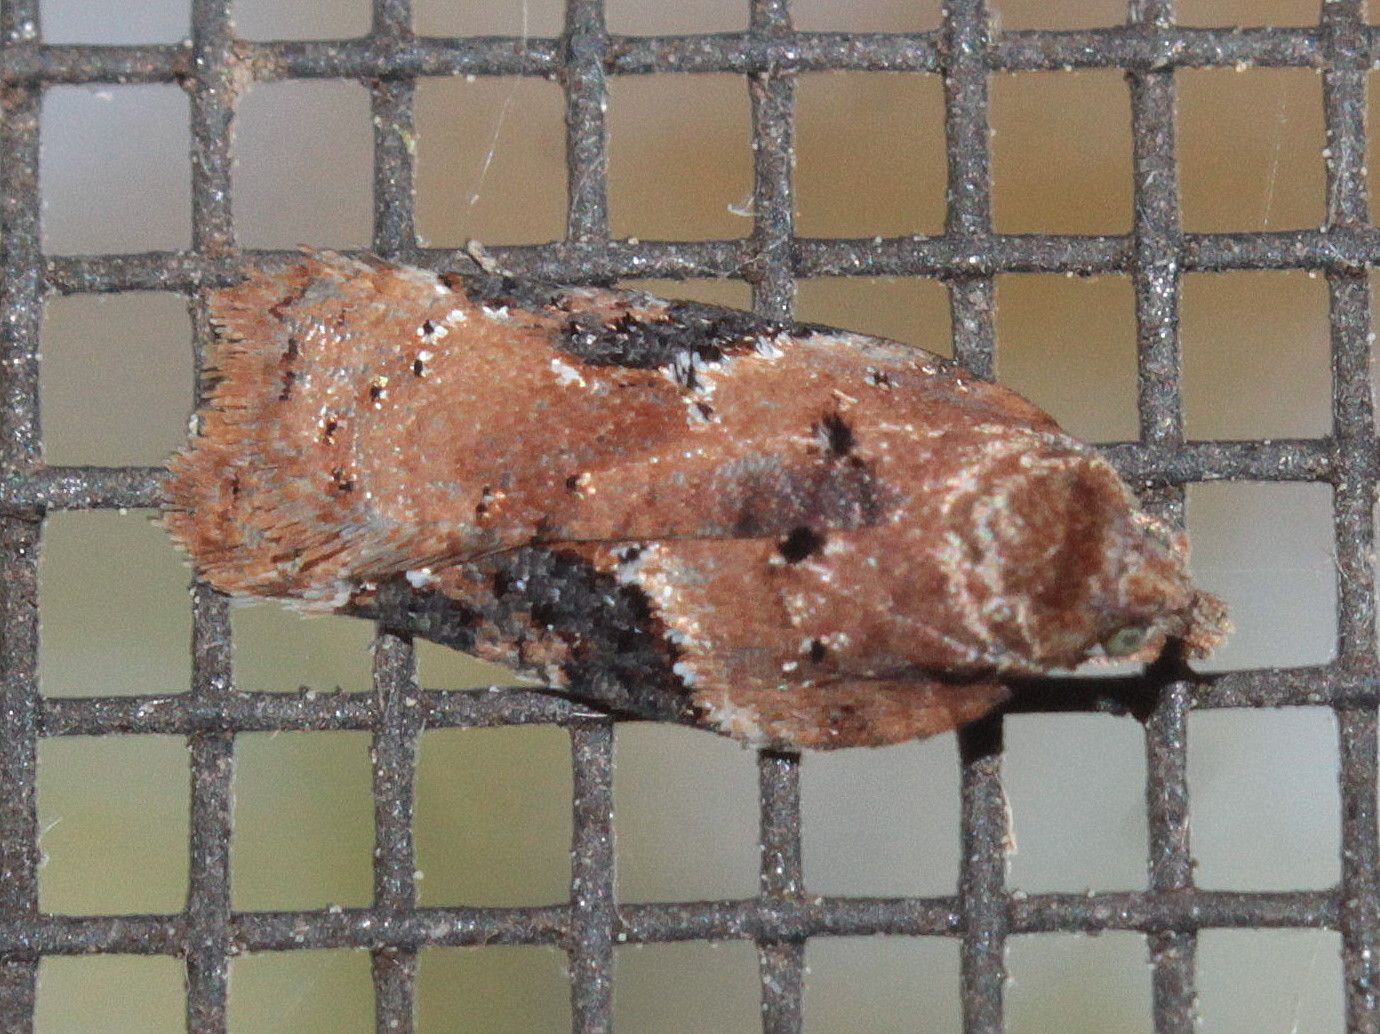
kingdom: Animalia
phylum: Arthropoda
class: Insecta
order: Lepidoptera
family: Tortricidae
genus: Acleris
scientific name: Acleris braunana
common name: Alder leafroller
